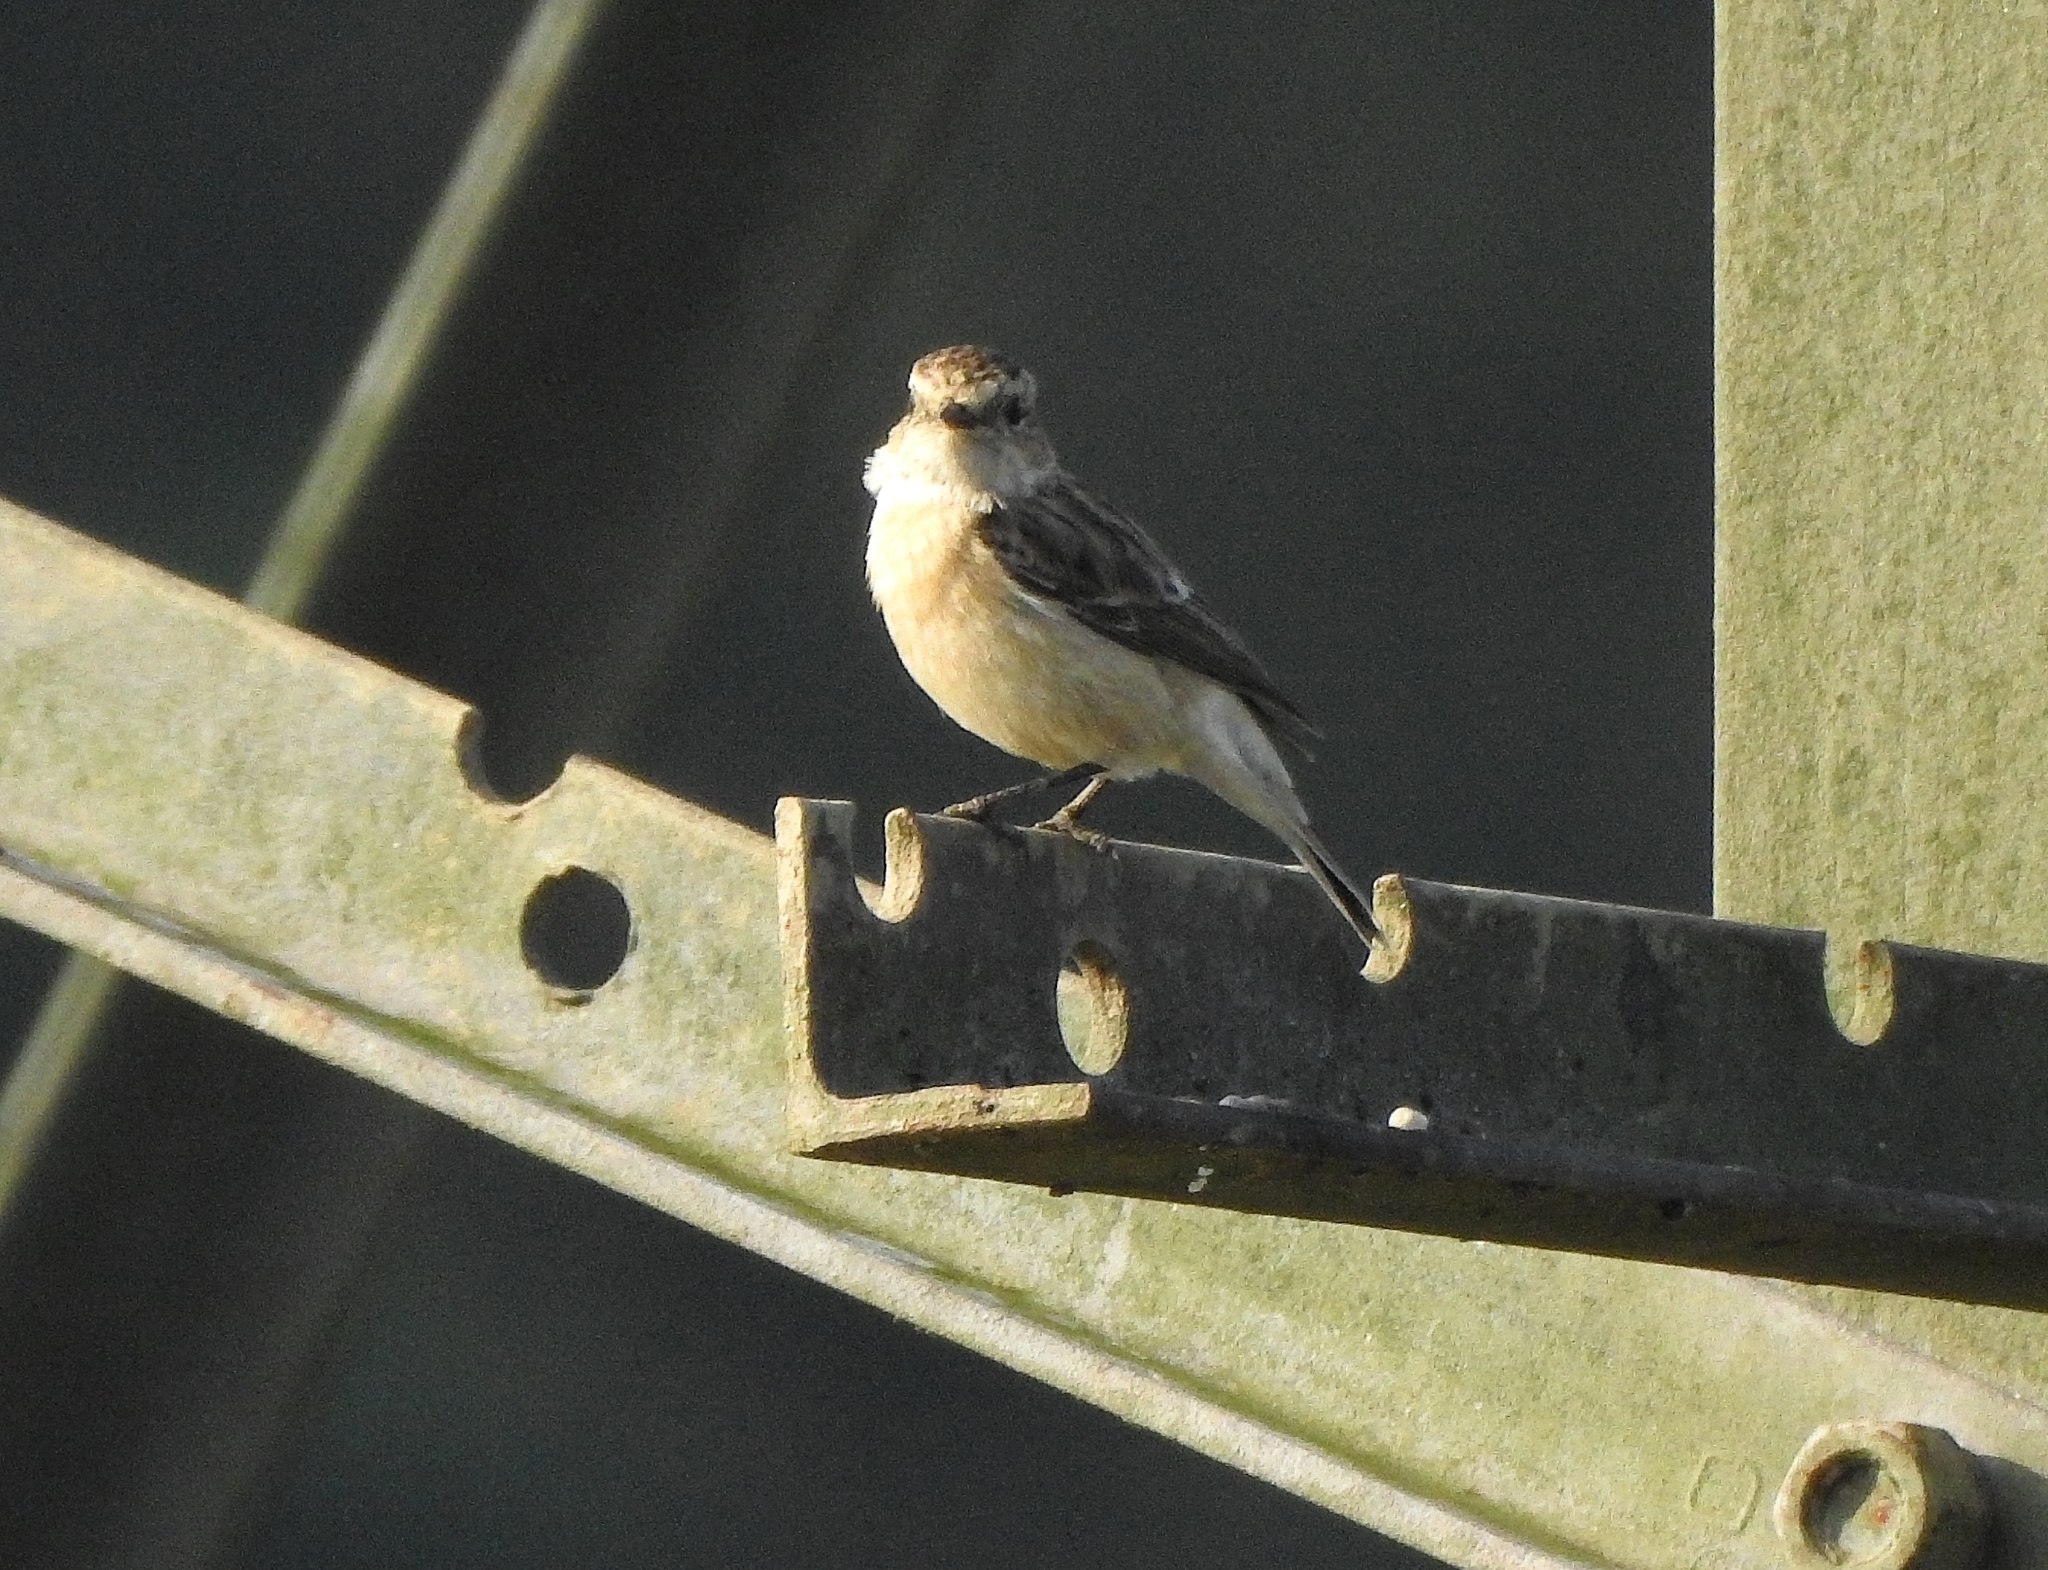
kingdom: Animalia
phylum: Chordata
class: Aves
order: Passeriformes
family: Muscicapidae
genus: Saxicola
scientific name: Saxicola maurus
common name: Siberian stonechat
